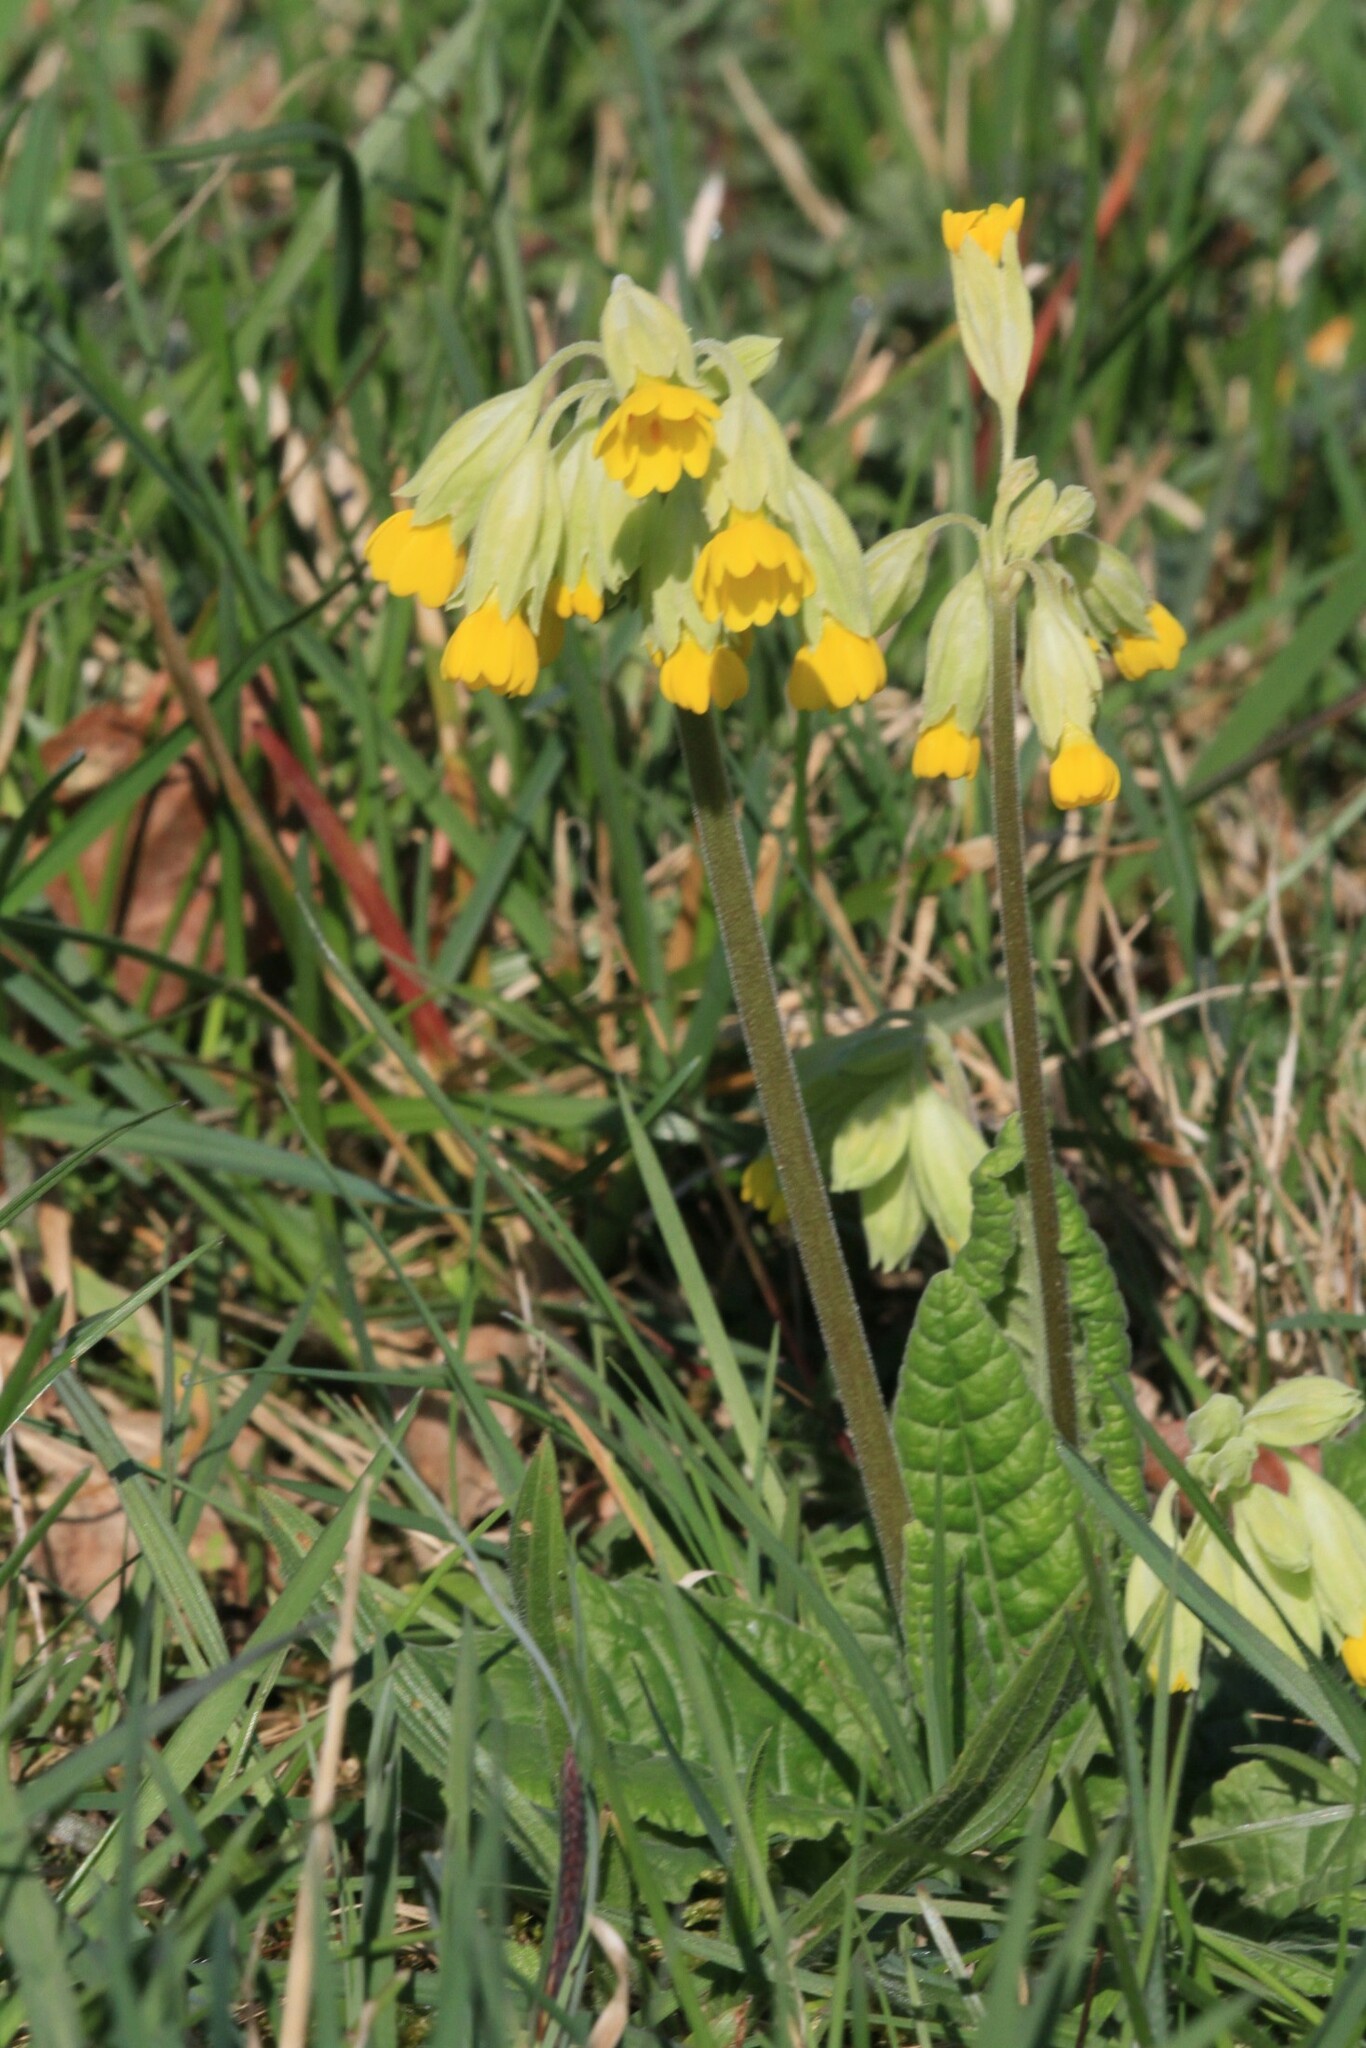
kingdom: Plantae
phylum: Tracheophyta
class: Magnoliopsida
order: Ericales
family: Primulaceae
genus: Primula
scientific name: Primula veris
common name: Cowslip
